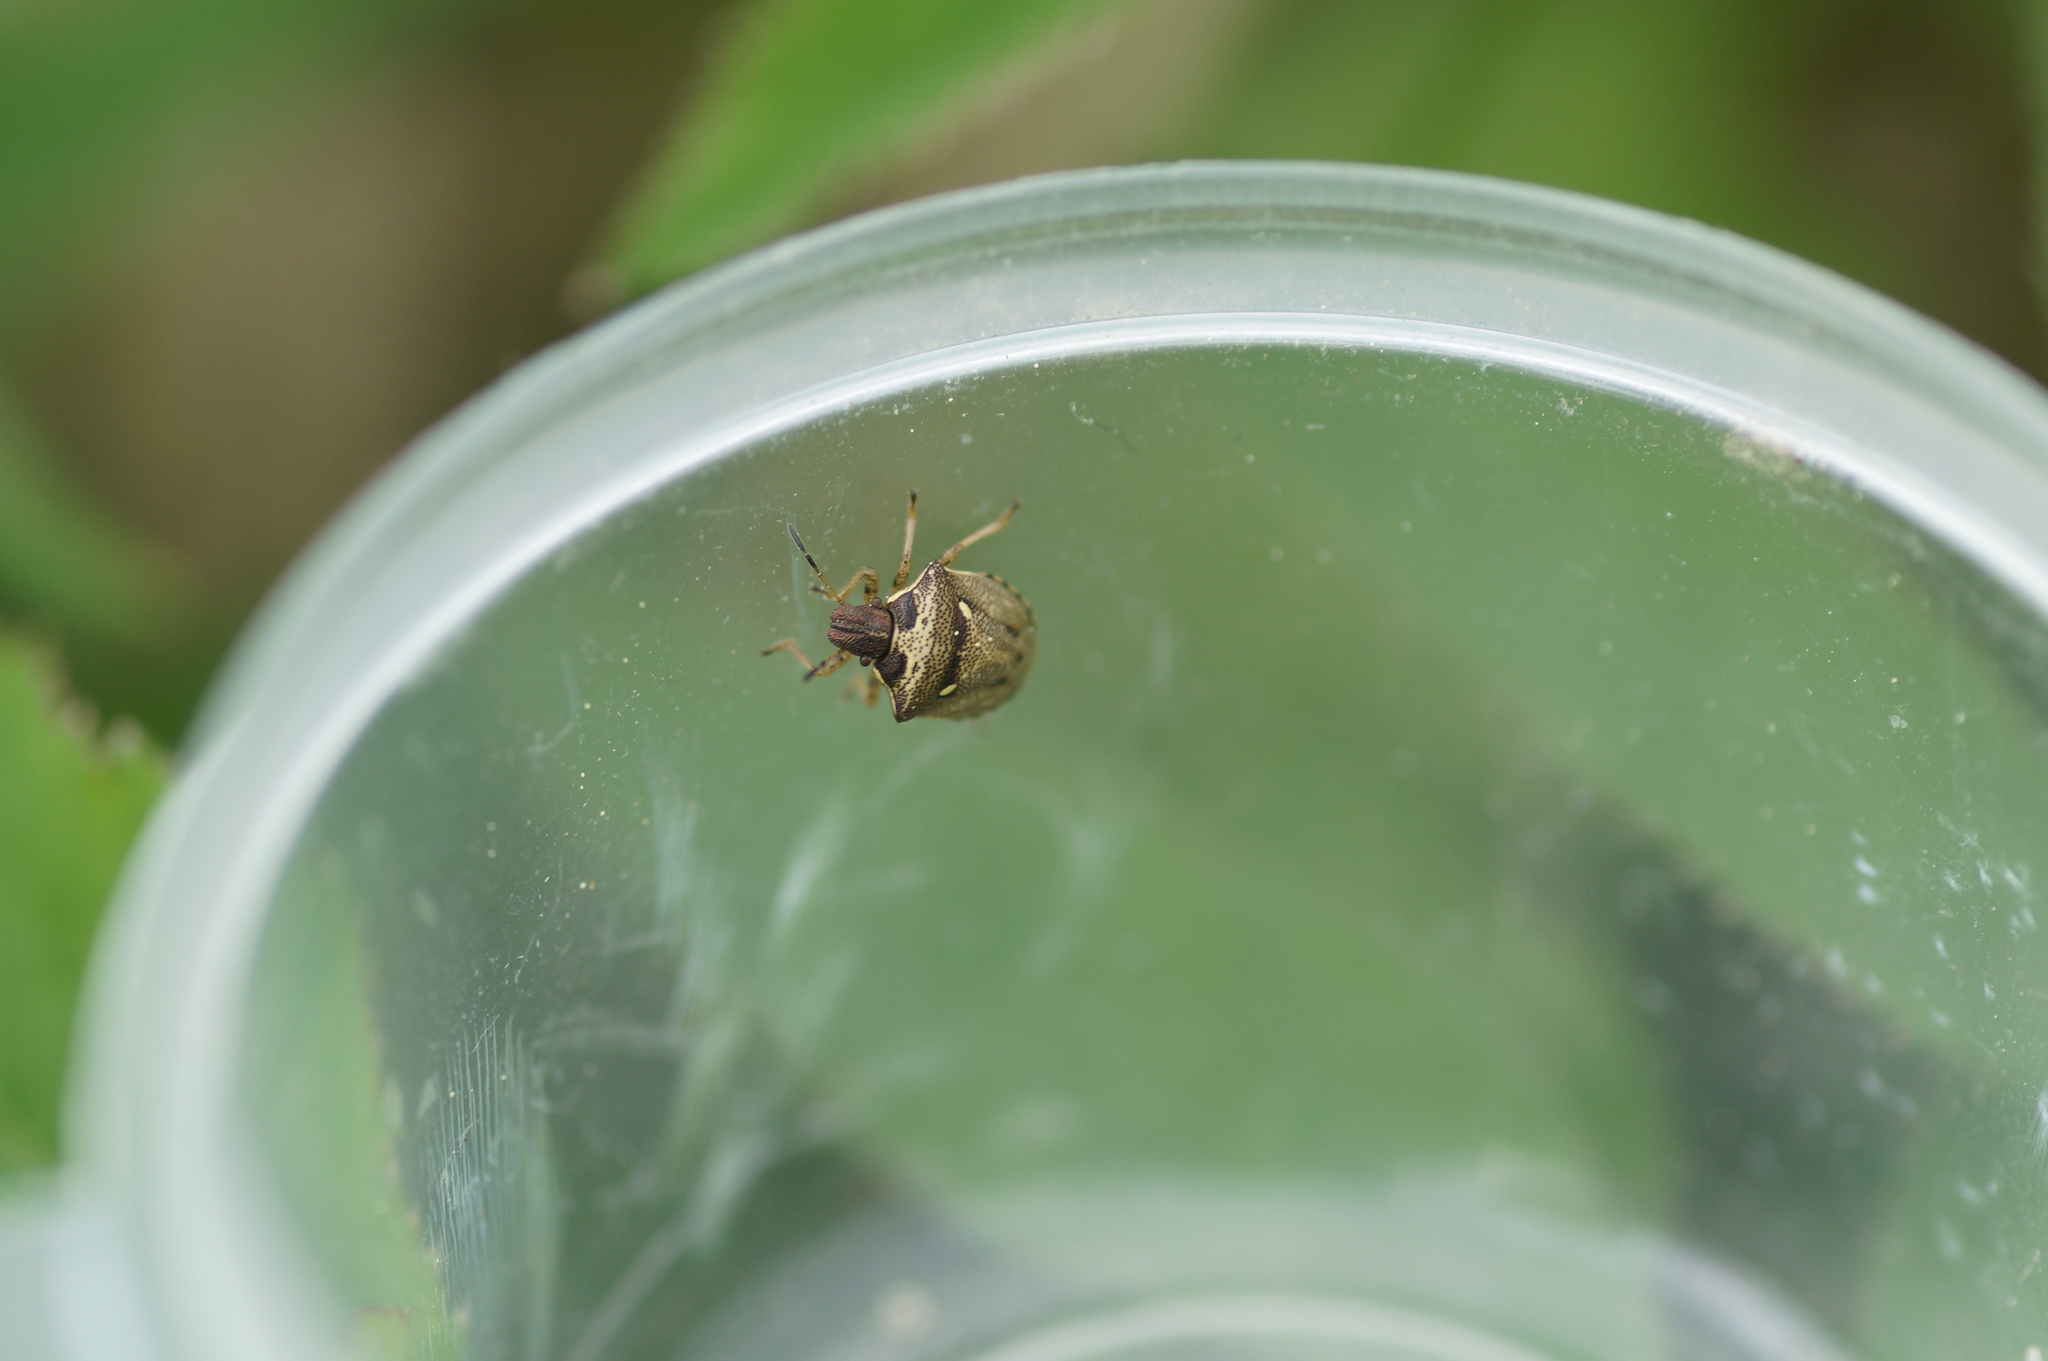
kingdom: Animalia
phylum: Arthropoda
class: Insecta
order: Hemiptera
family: Pentatomidae
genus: Eysarcoris
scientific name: Eysarcoris aeneus
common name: New forest shieldbug
